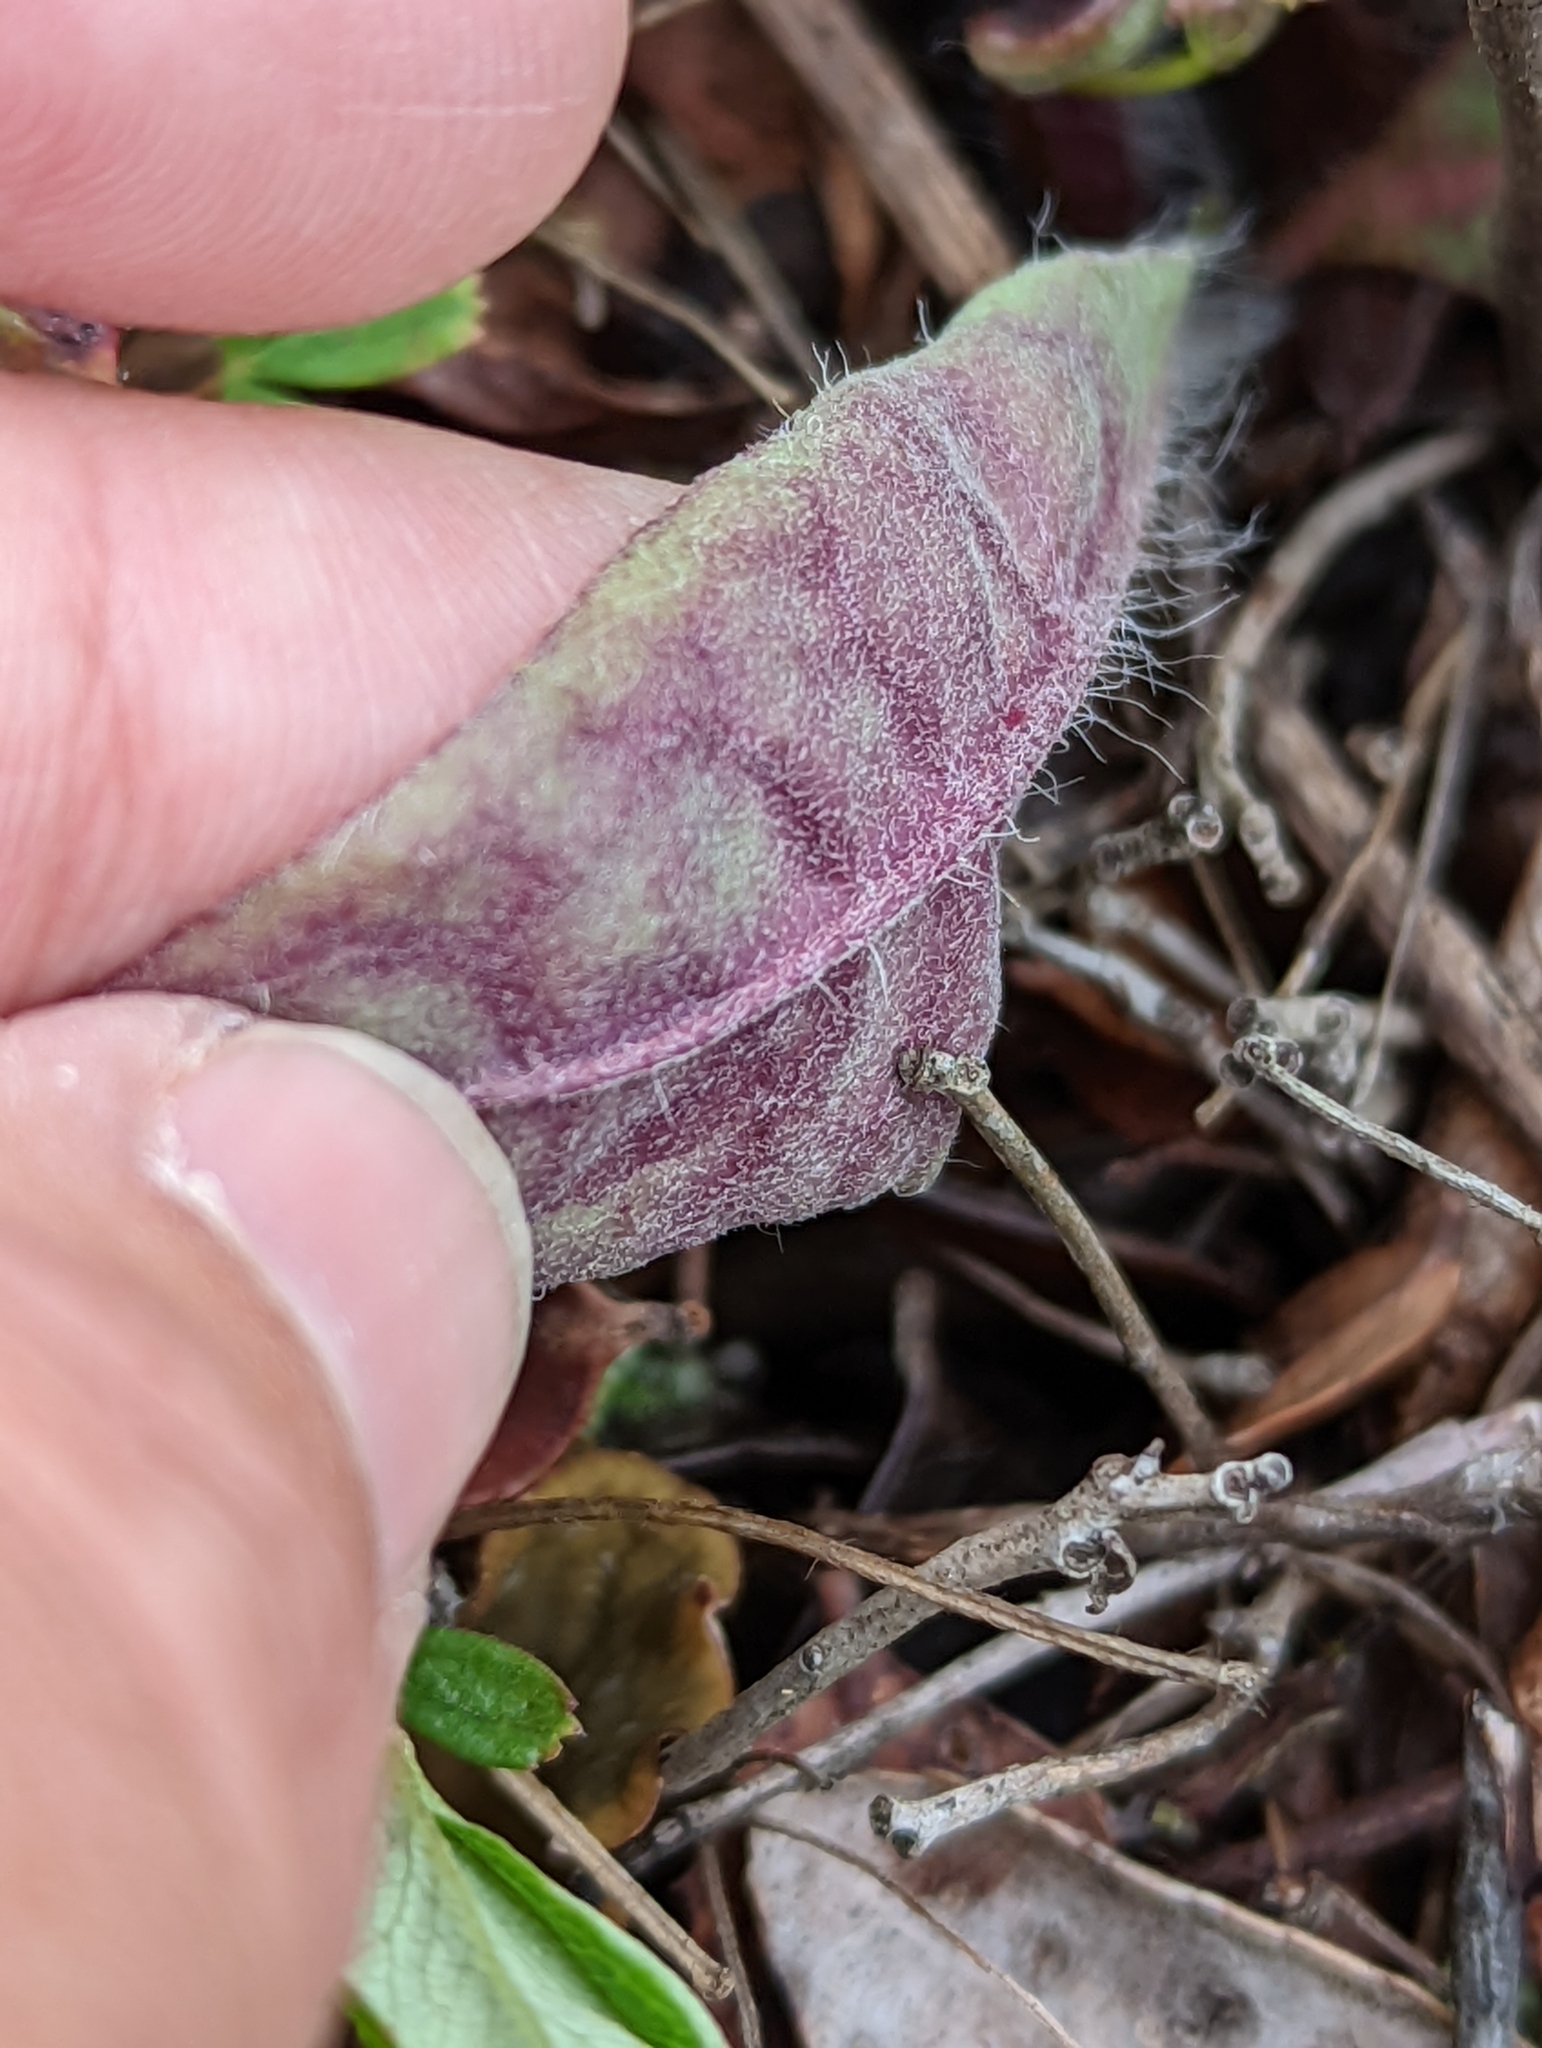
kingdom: Plantae
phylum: Tracheophyta
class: Magnoliopsida
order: Asterales
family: Asteraceae
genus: Hieracium
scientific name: Hieracium venosum
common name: Rattlesnake hawkweed
